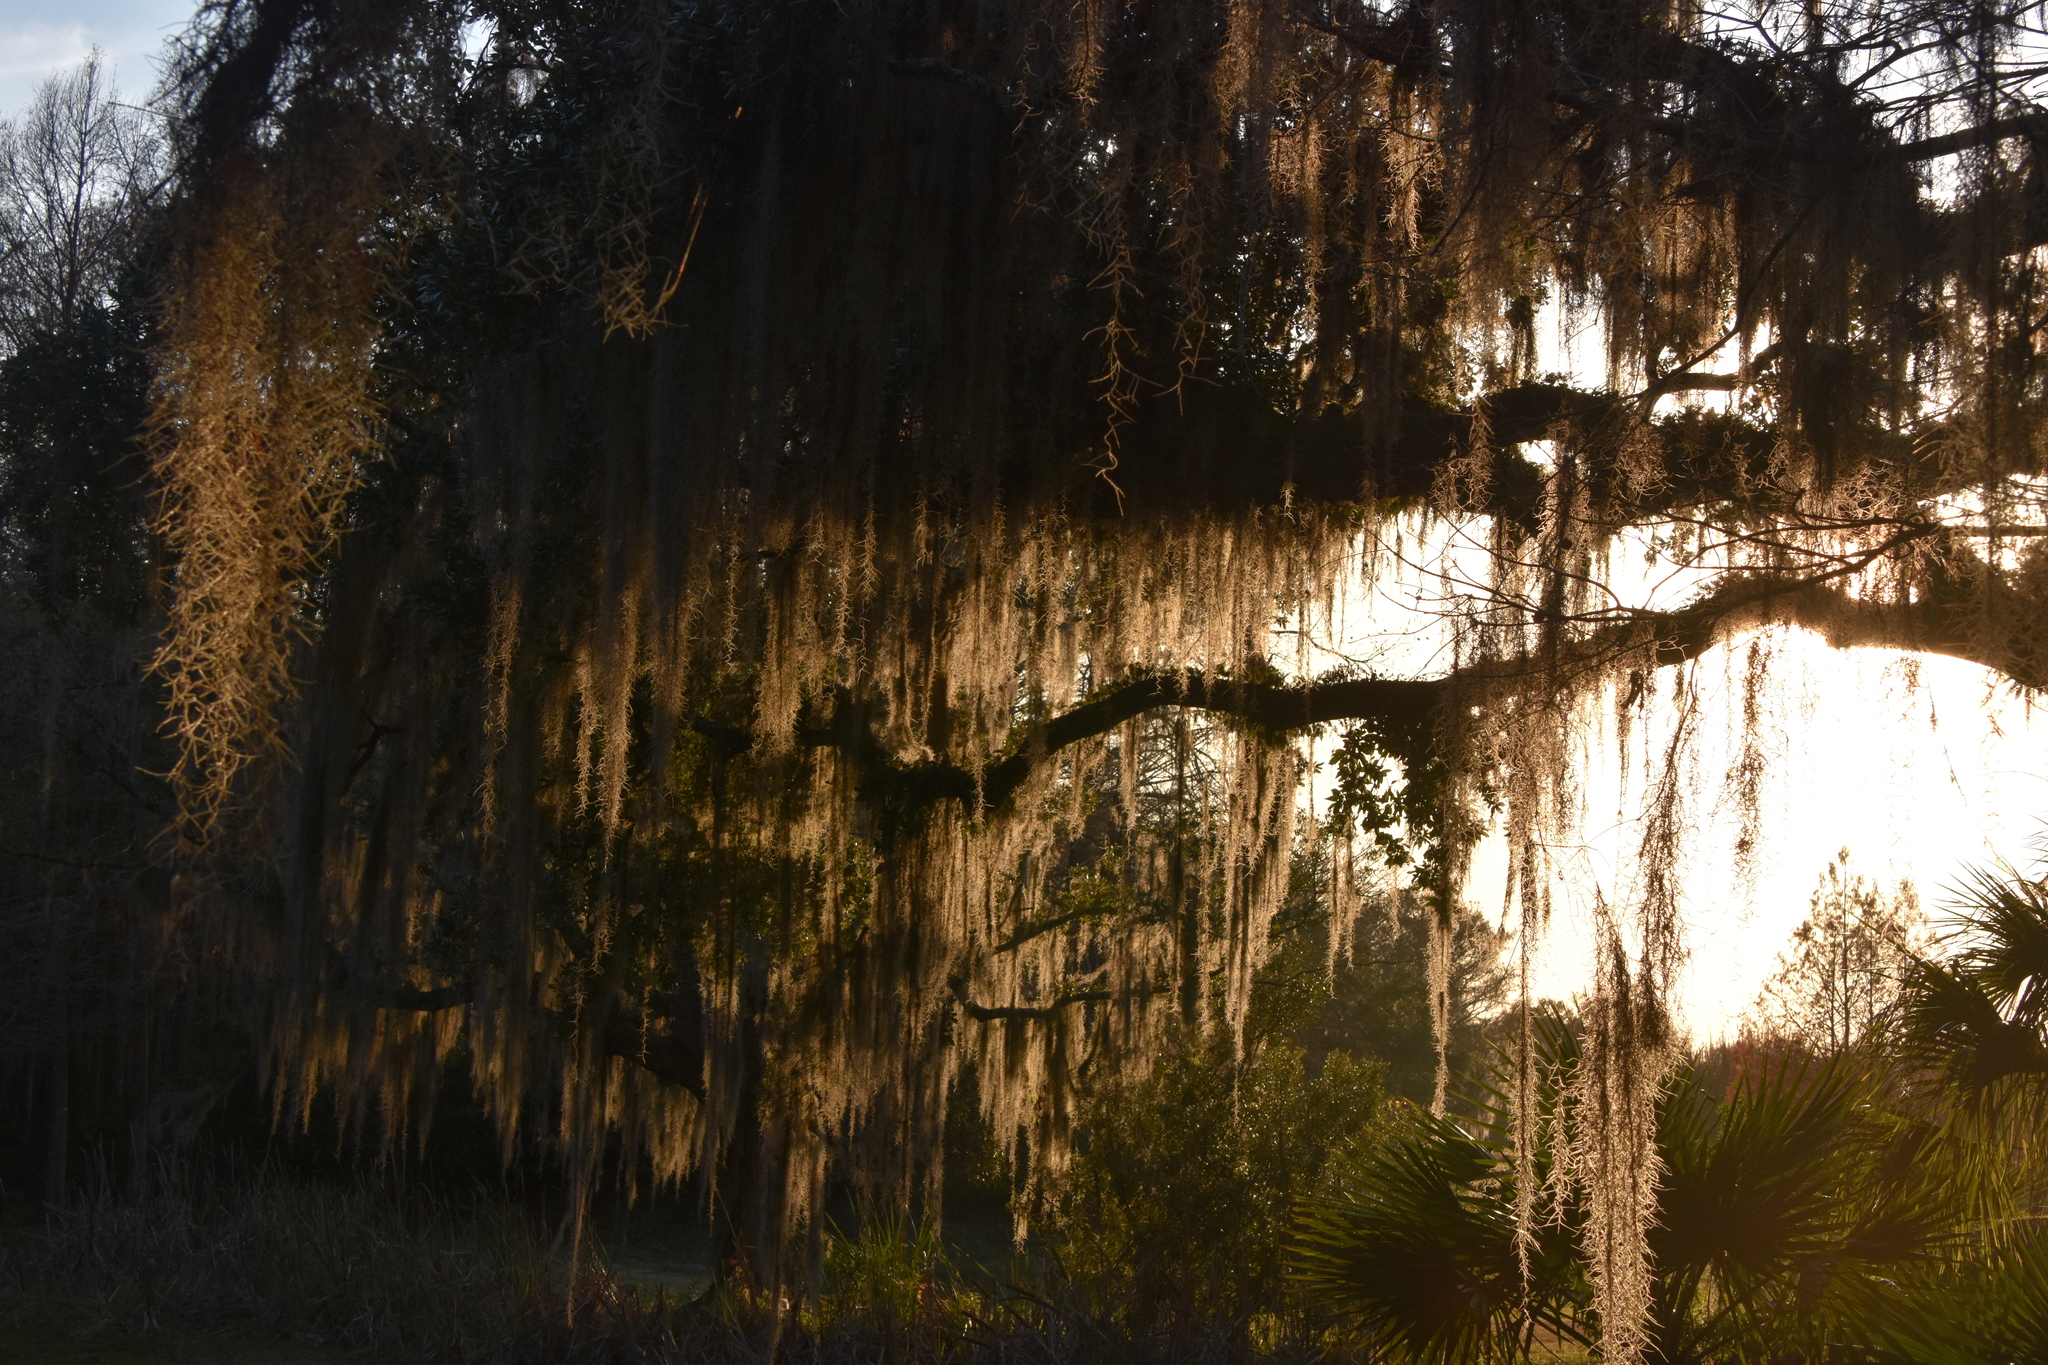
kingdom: Plantae
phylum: Tracheophyta
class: Liliopsida
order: Poales
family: Bromeliaceae
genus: Tillandsia
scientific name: Tillandsia usneoides
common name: Spanish moss
